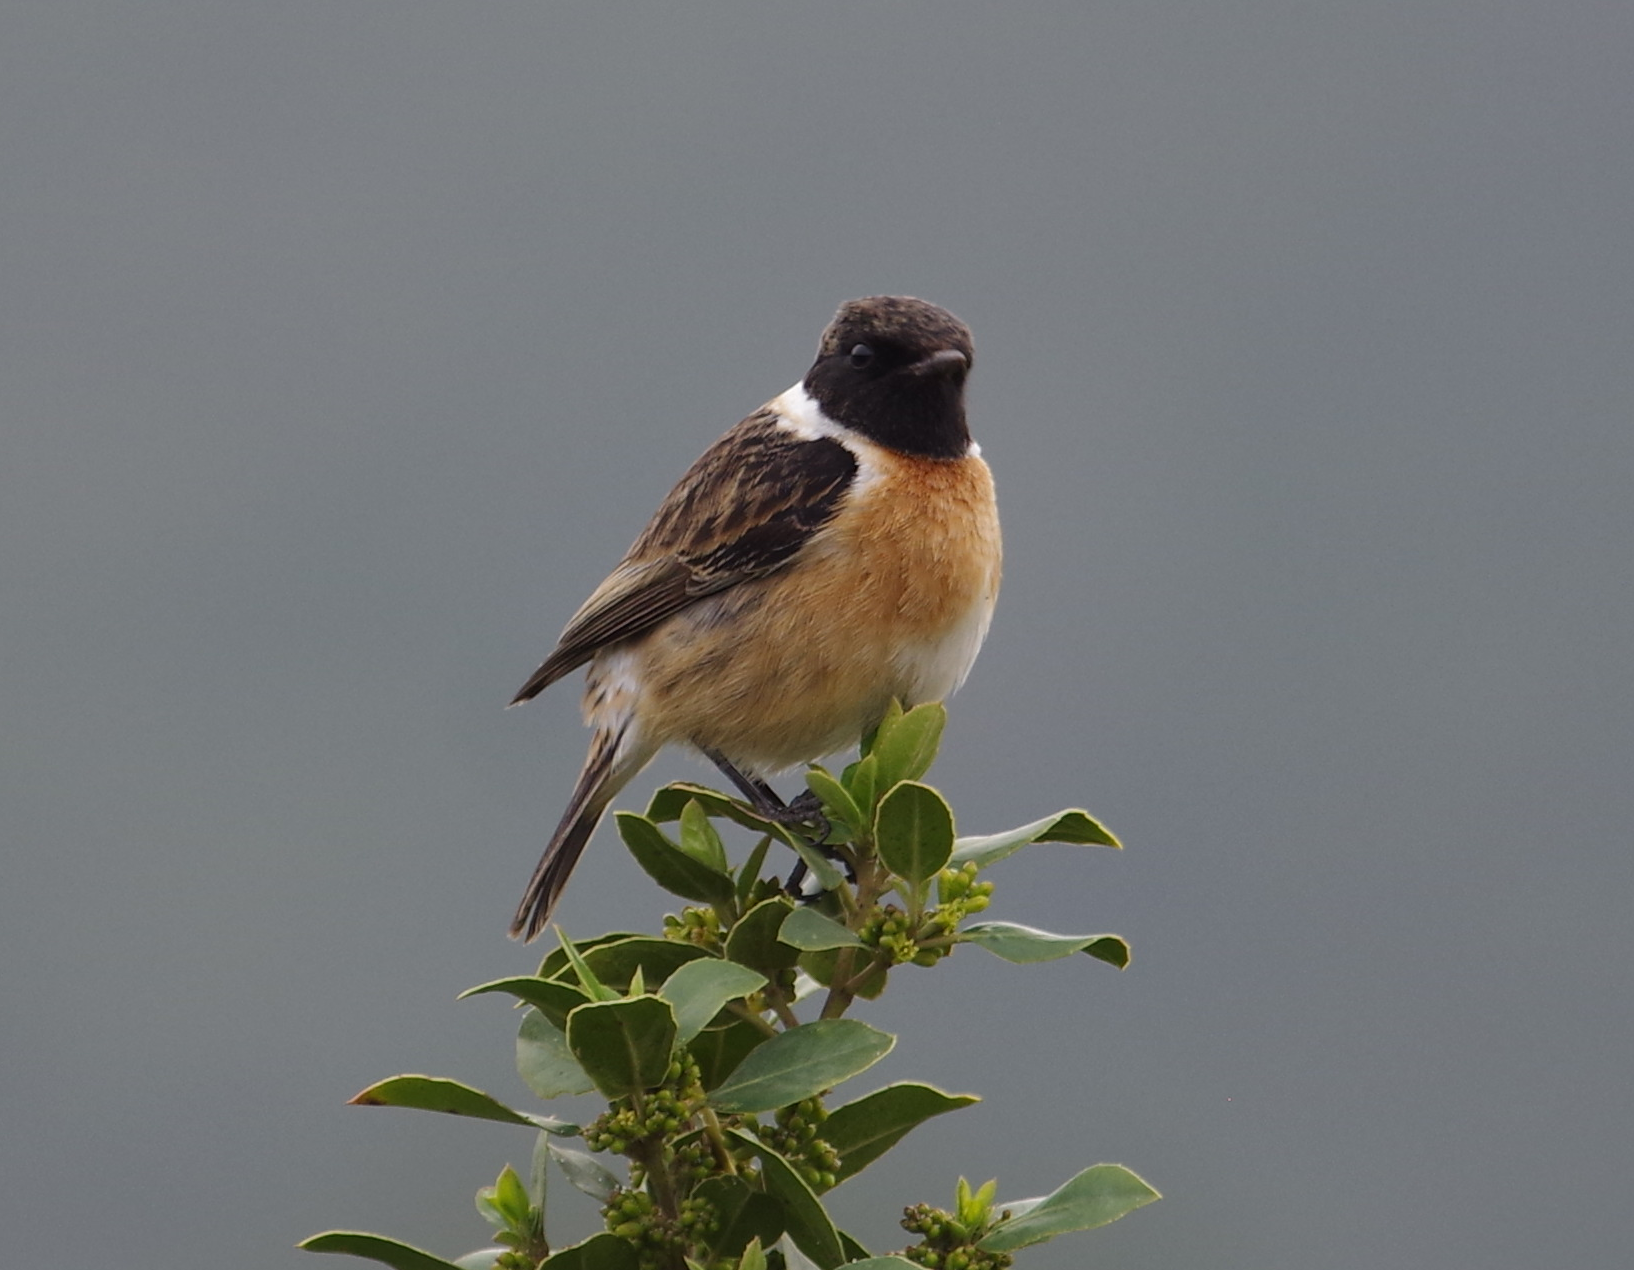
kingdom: Animalia
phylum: Chordata
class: Aves
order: Passeriformes
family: Muscicapidae
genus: Saxicola
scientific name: Saxicola rubicola
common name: European stonechat
